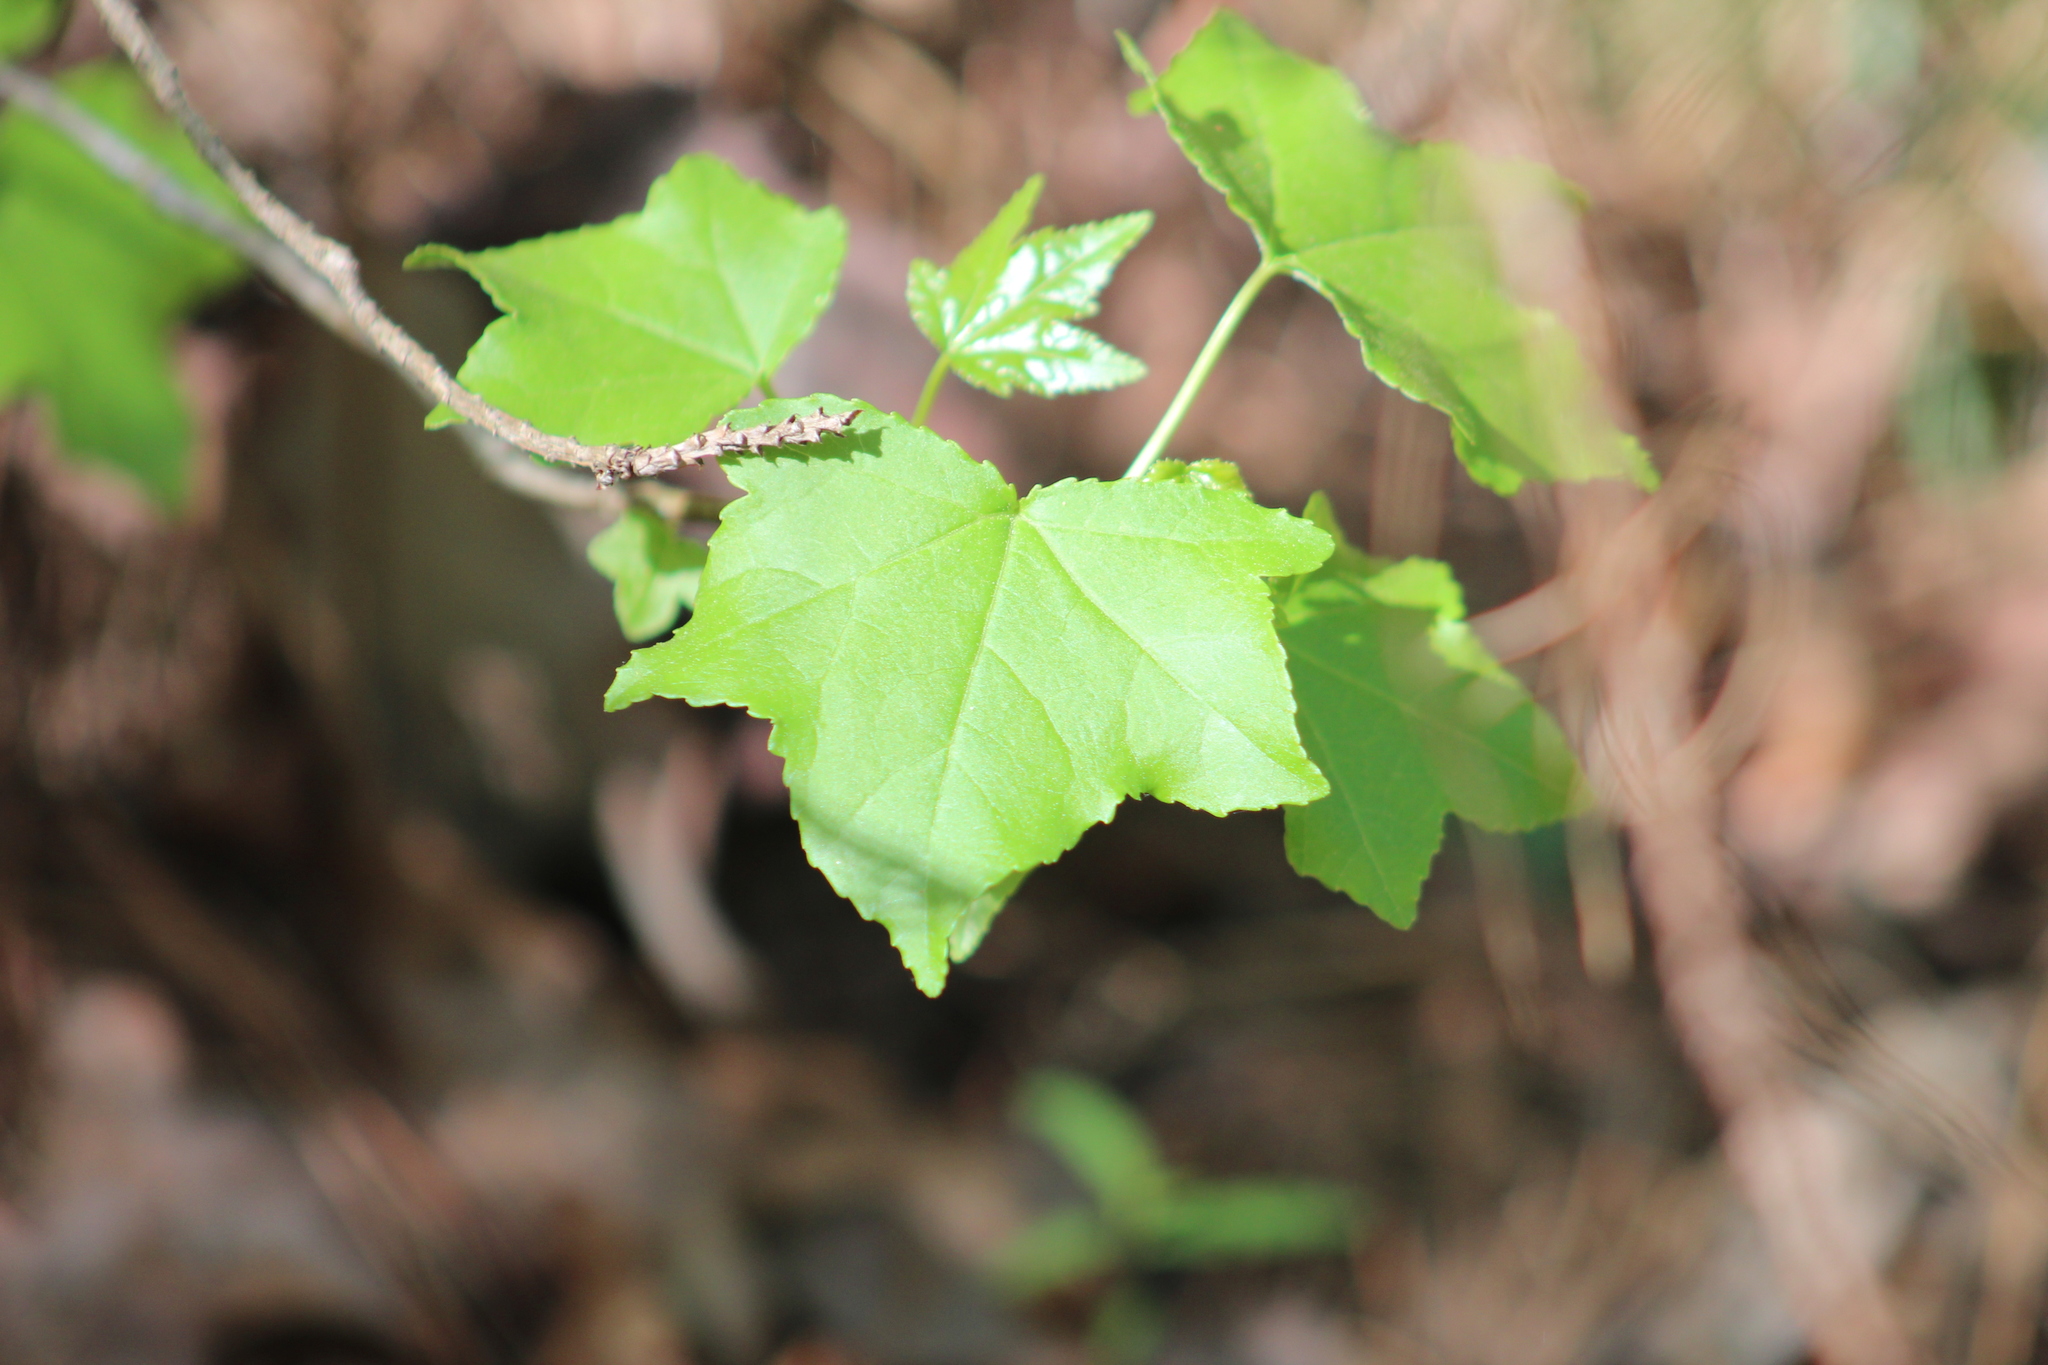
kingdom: Plantae
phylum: Tracheophyta
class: Magnoliopsida
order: Saxifragales
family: Altingiaceae
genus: Liquidambar
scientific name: Liquidambar styraciflua
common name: Sweet gum
